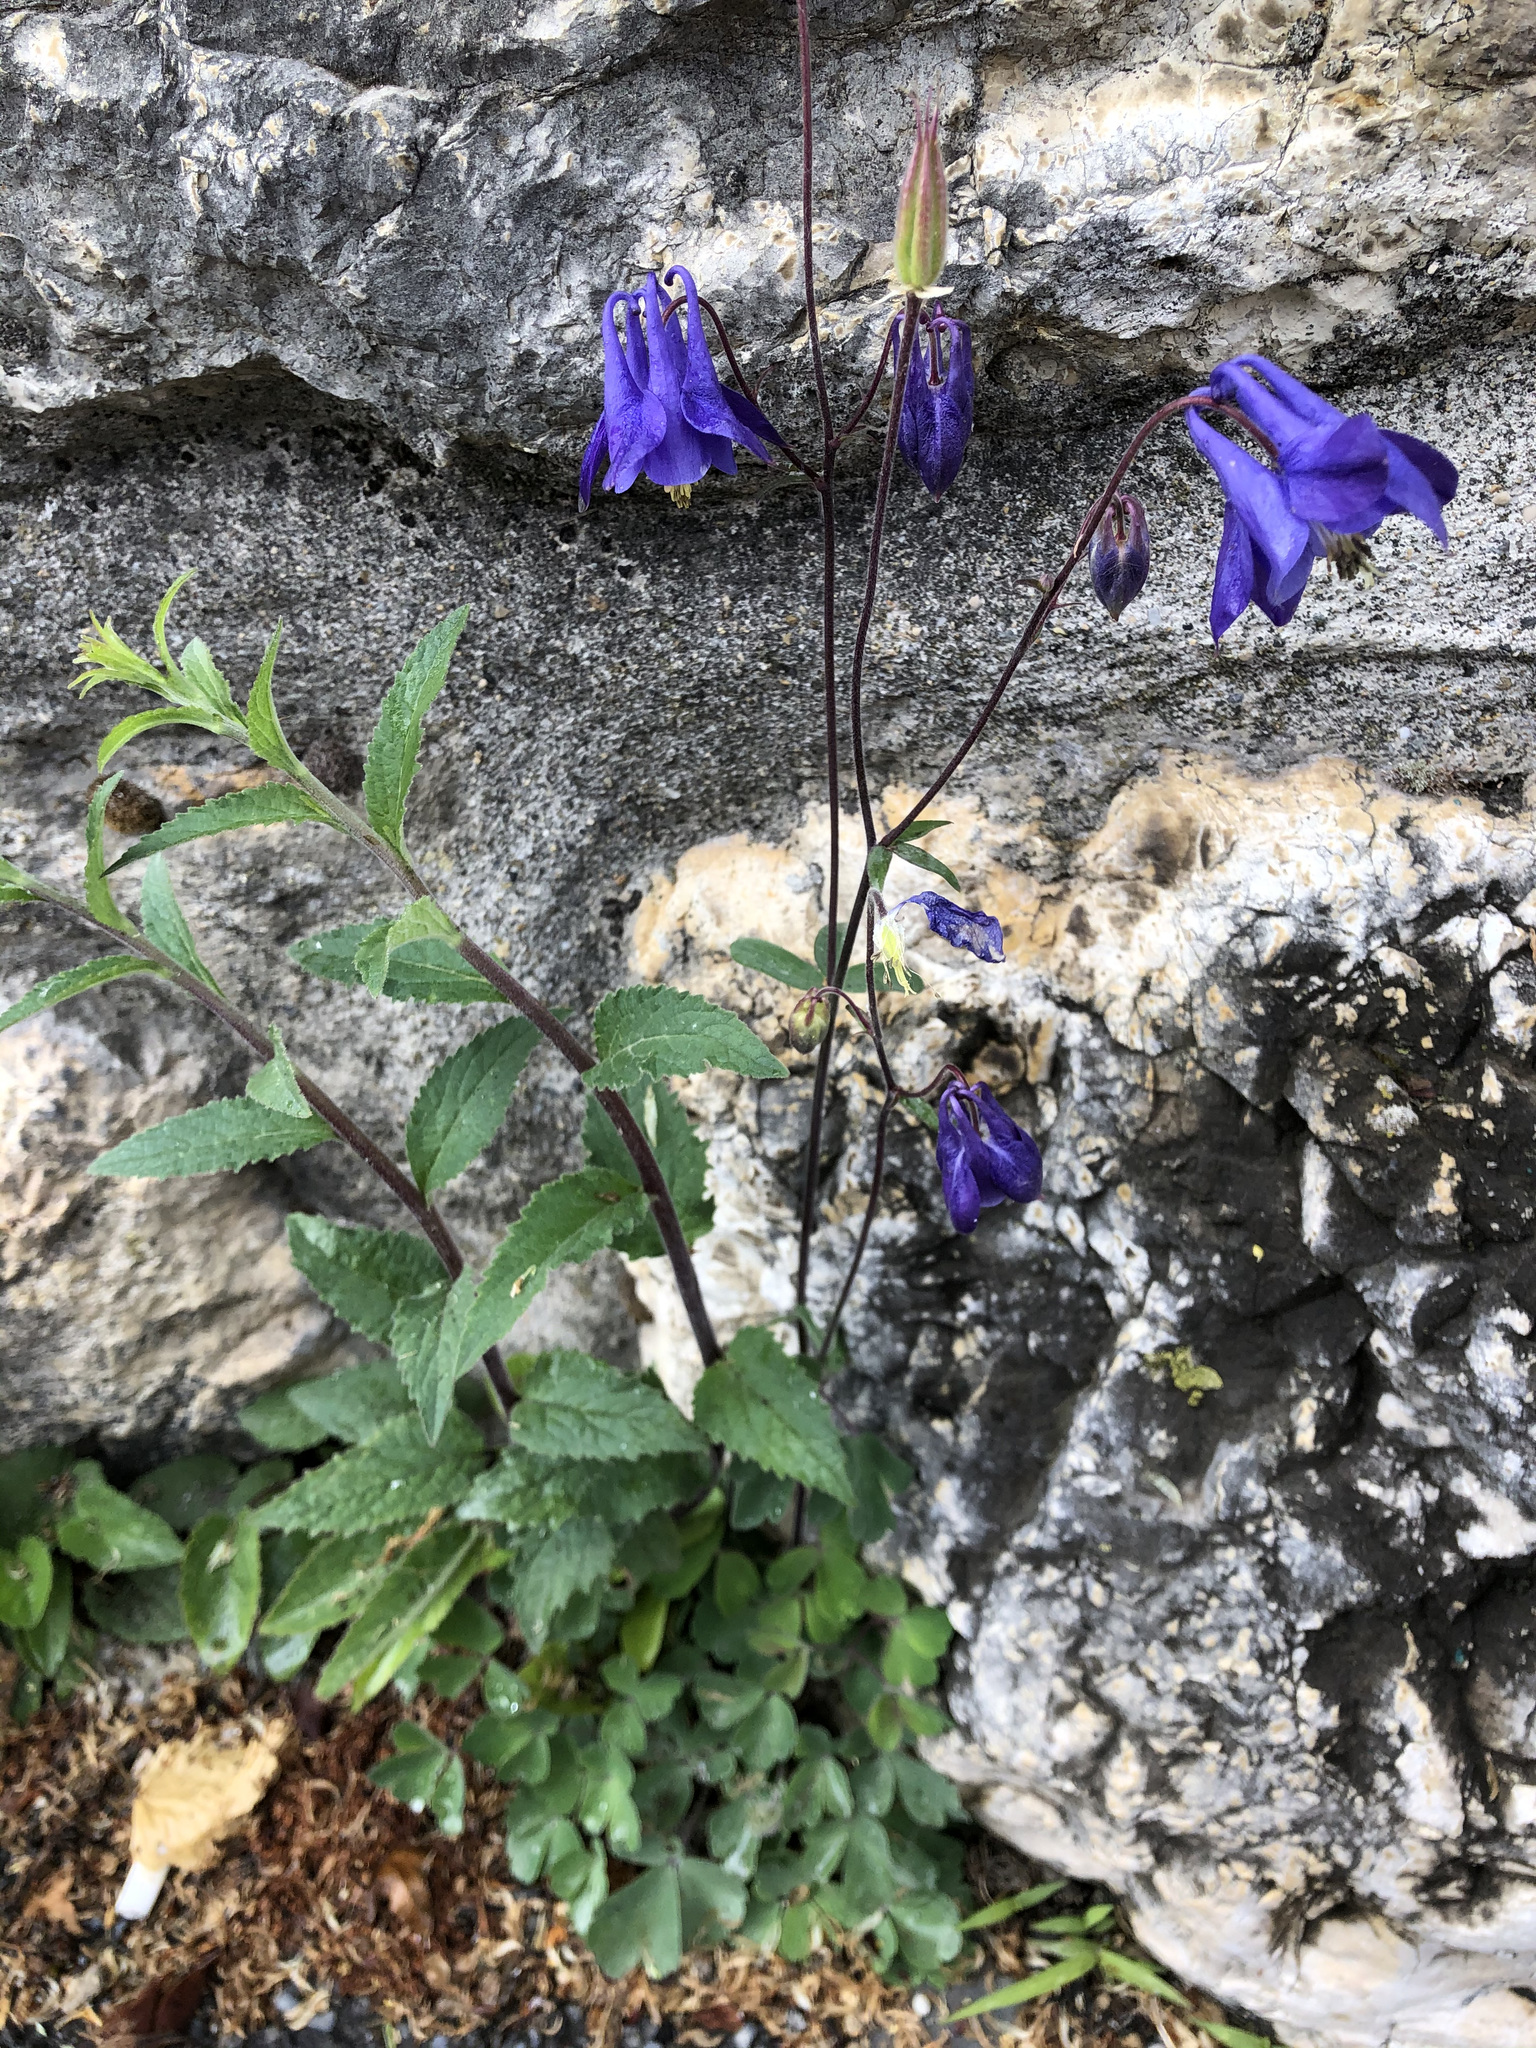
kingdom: Plantae
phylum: Tracheophyta
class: Magnoliopsida
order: Ranunculales
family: Ranunculaceae
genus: Aquilegia
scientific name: Aquilegia vulgaris
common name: Columbine
